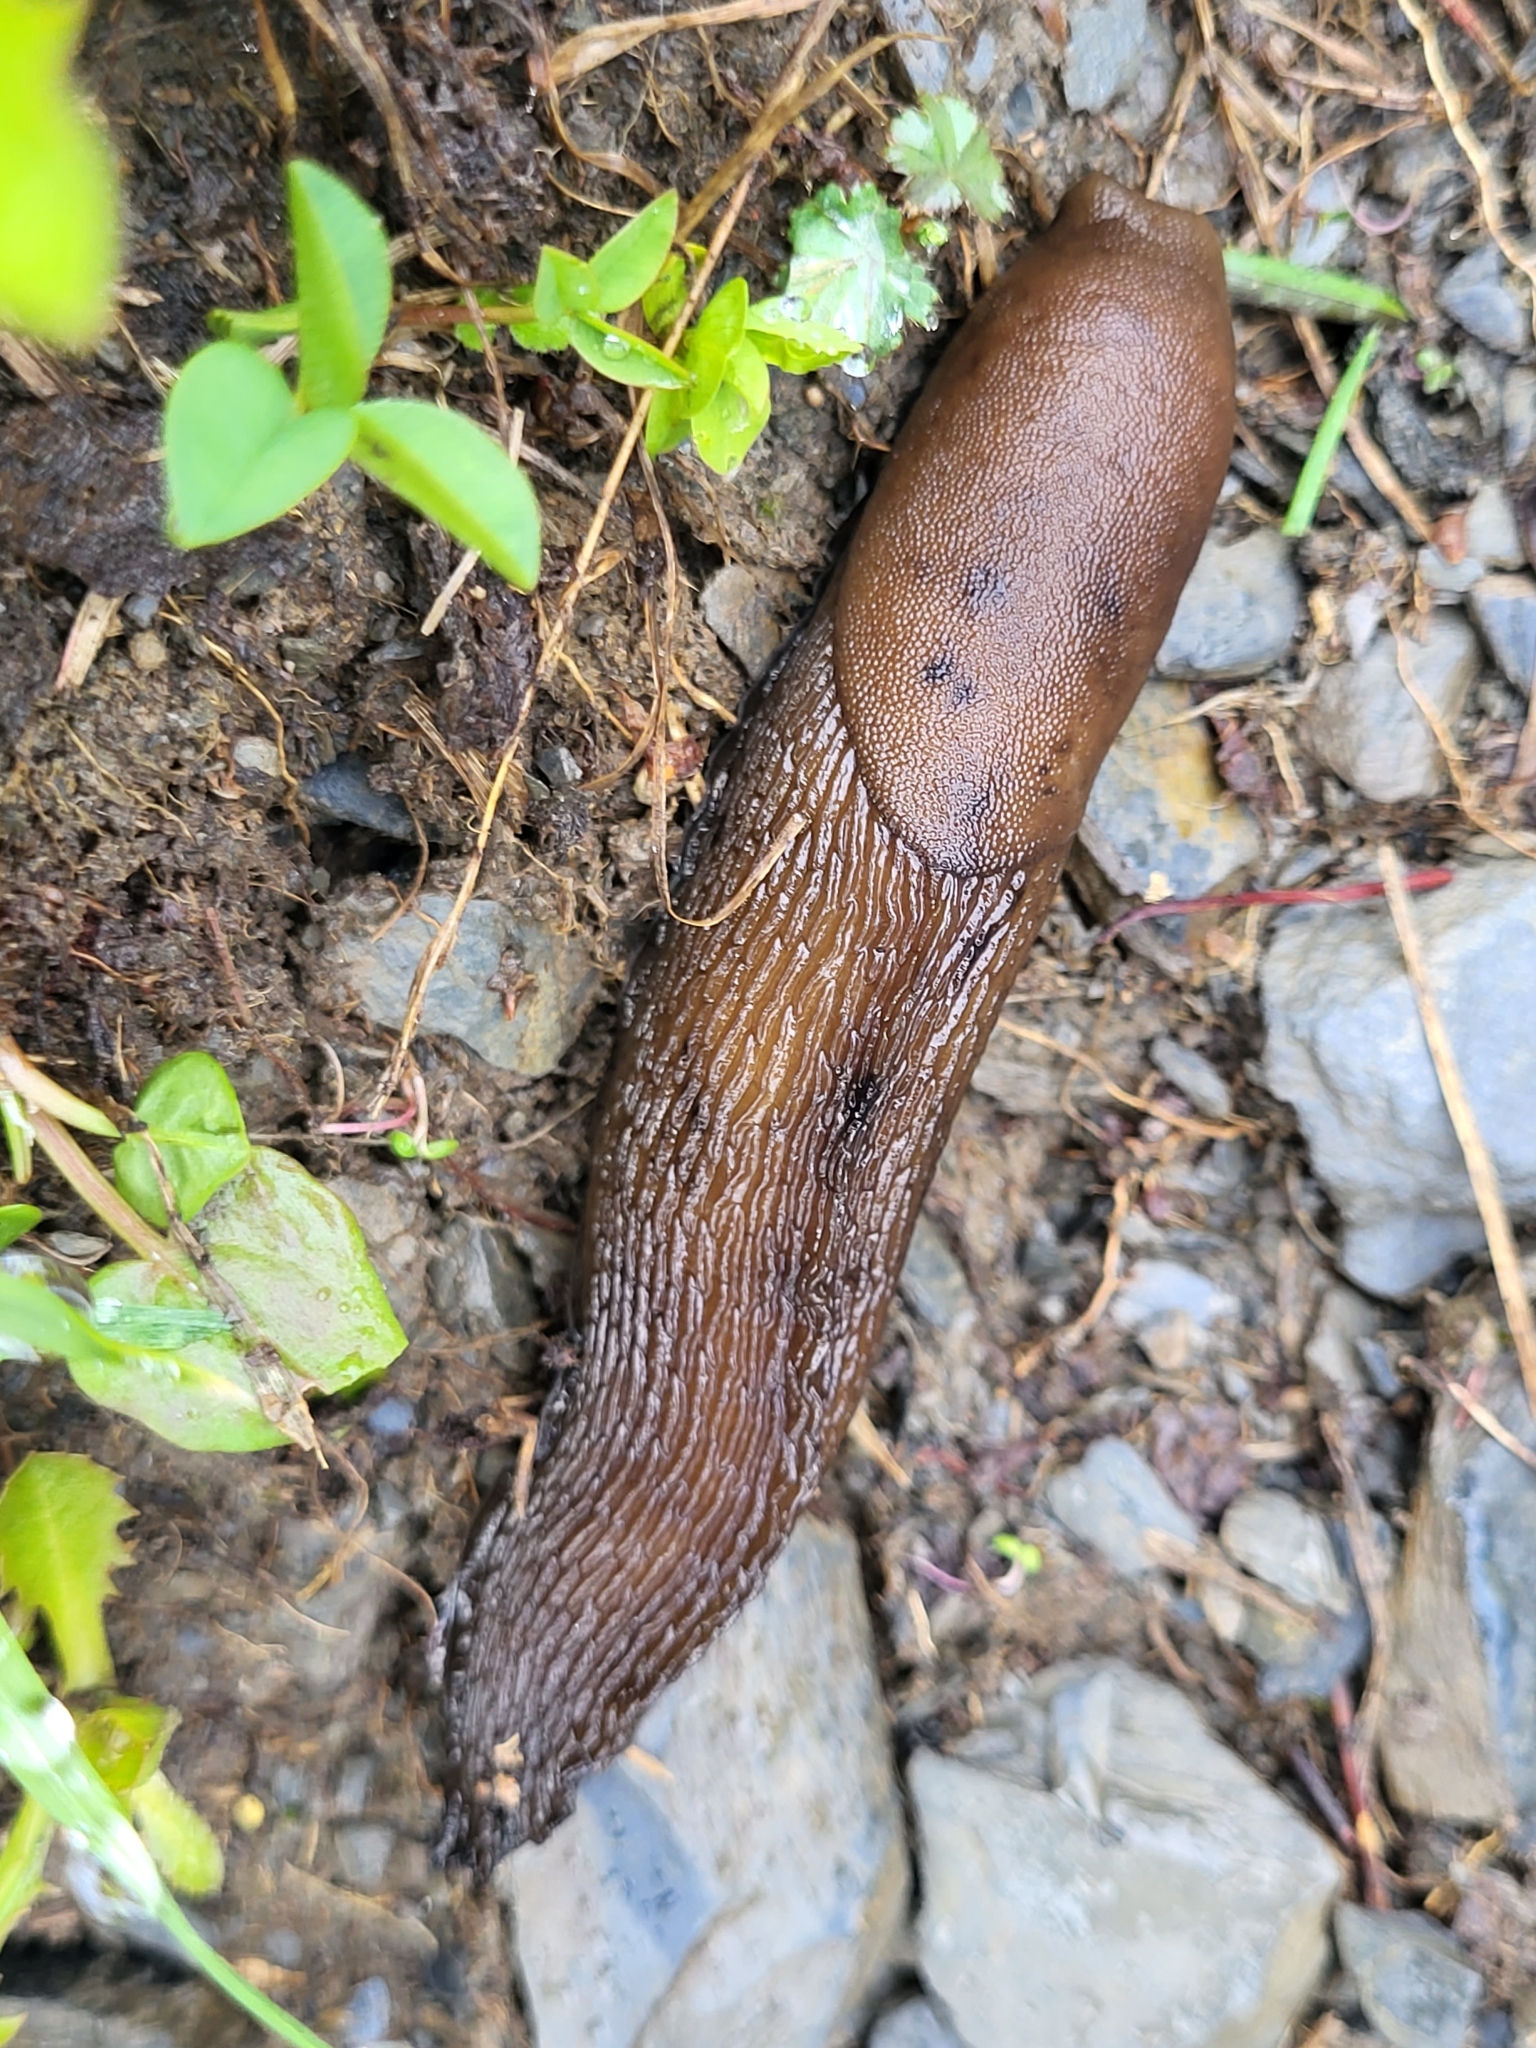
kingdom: Animalia
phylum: Mollusca
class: Gastropoda
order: Stylommatophora
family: Limacidae
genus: Eumilax
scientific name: Eumilax brandti
